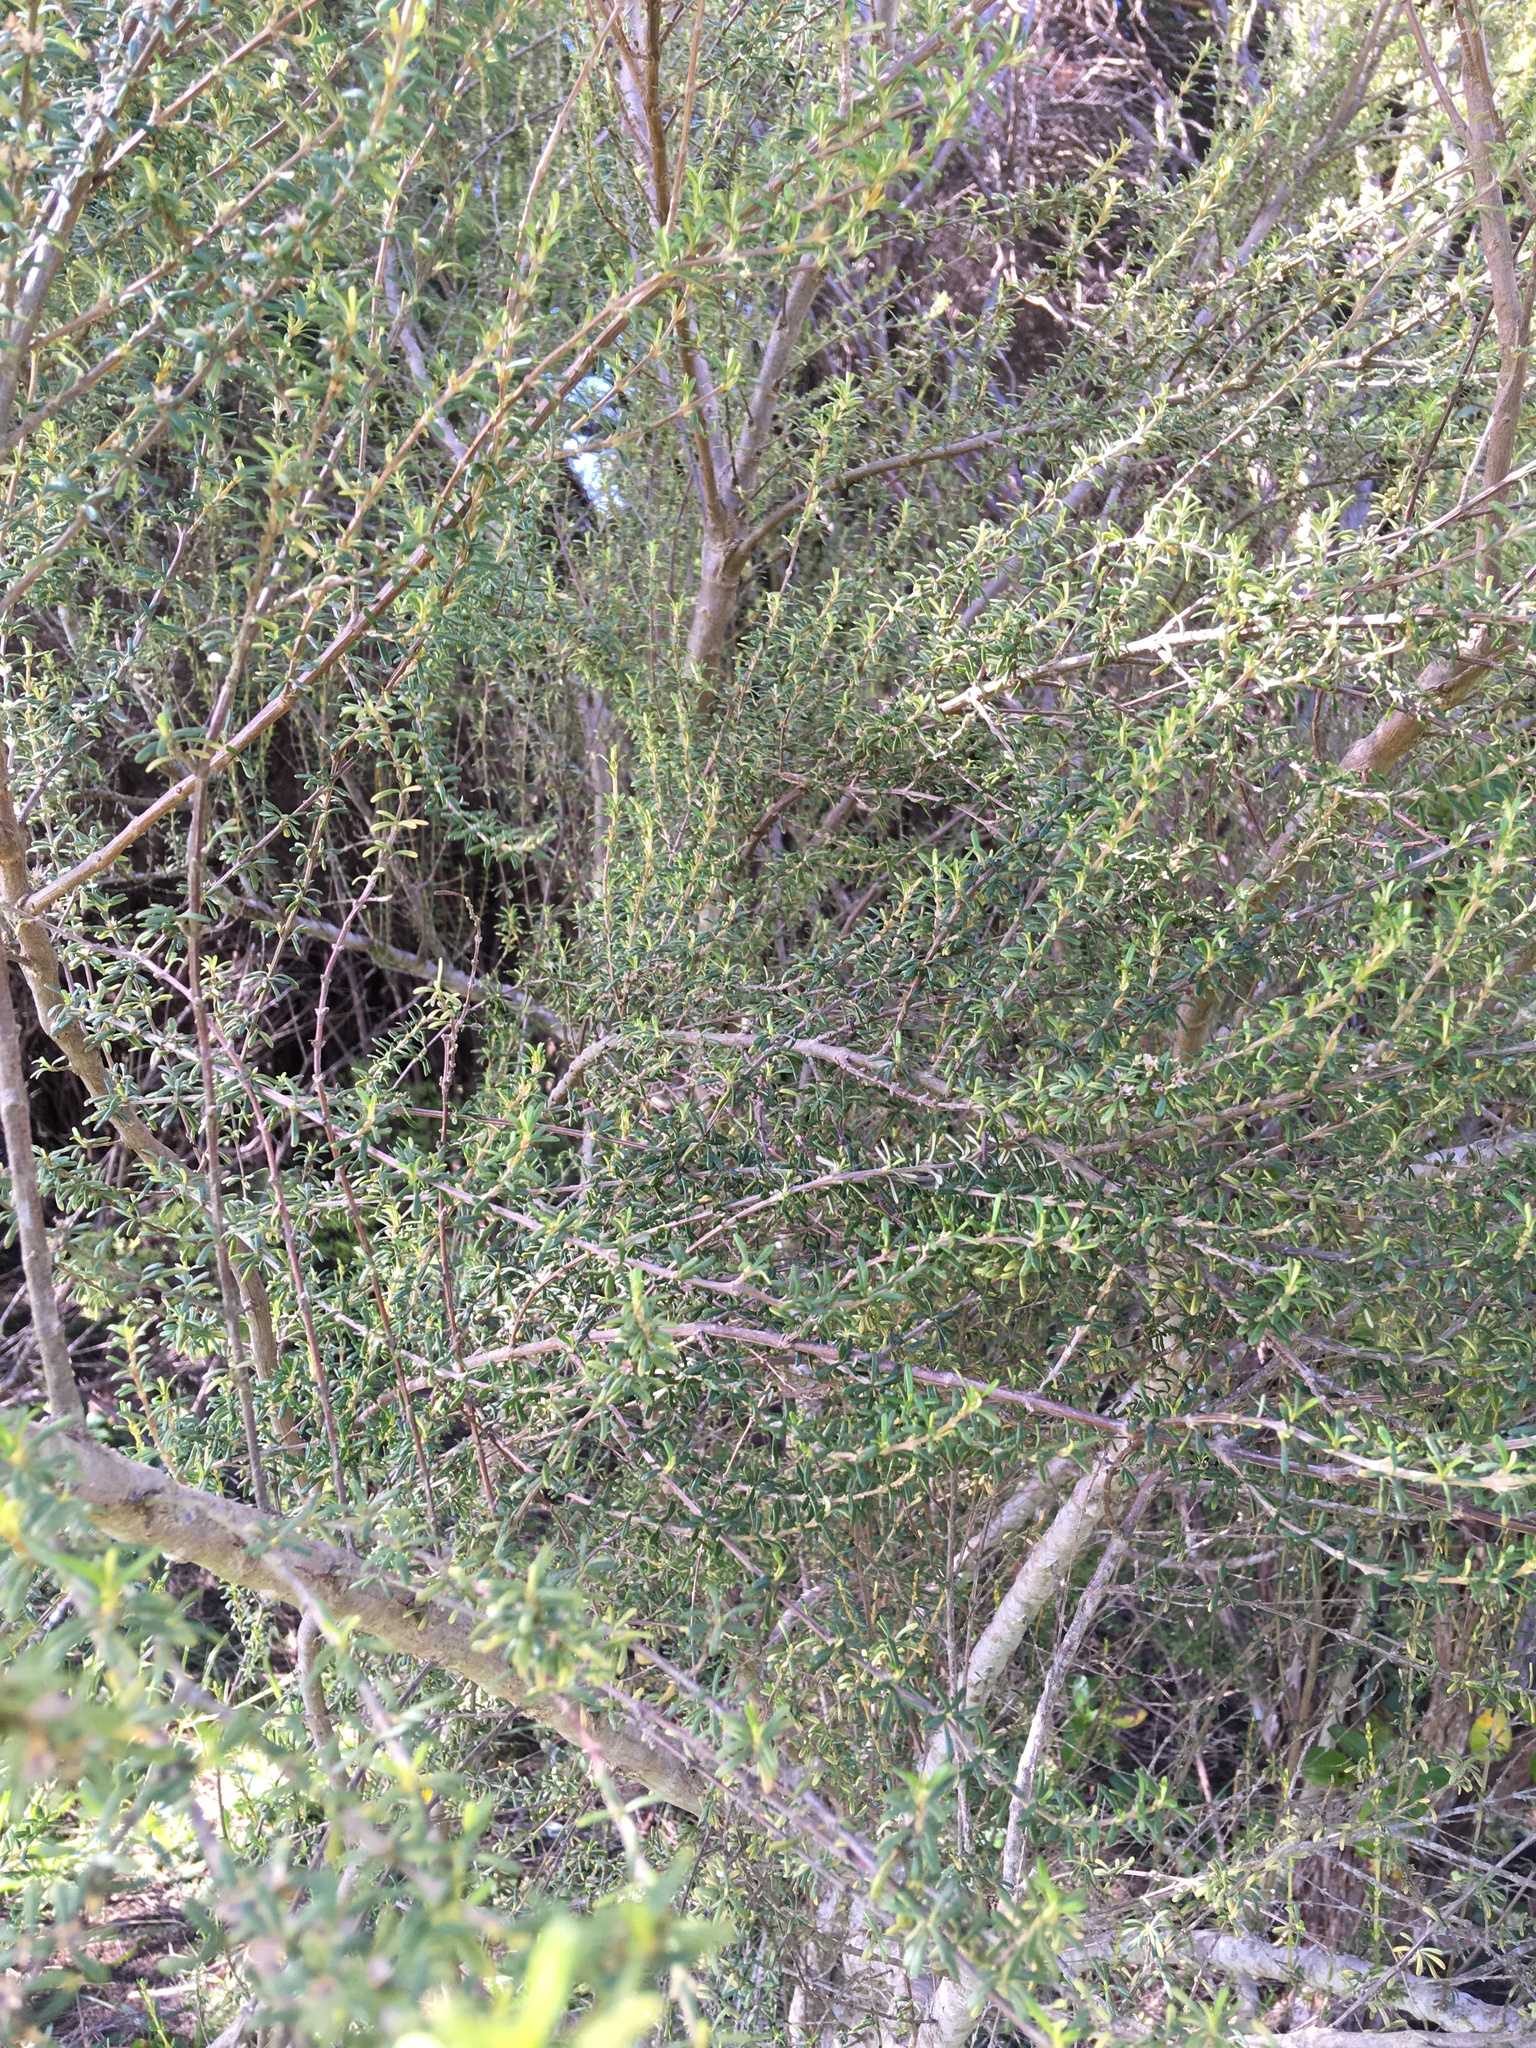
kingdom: Plantae
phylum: Tracheophyta
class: Magnoliopsida
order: Asterales
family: Asteraceae
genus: Olearia
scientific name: Olearia solandri
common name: Coastal daisybush
